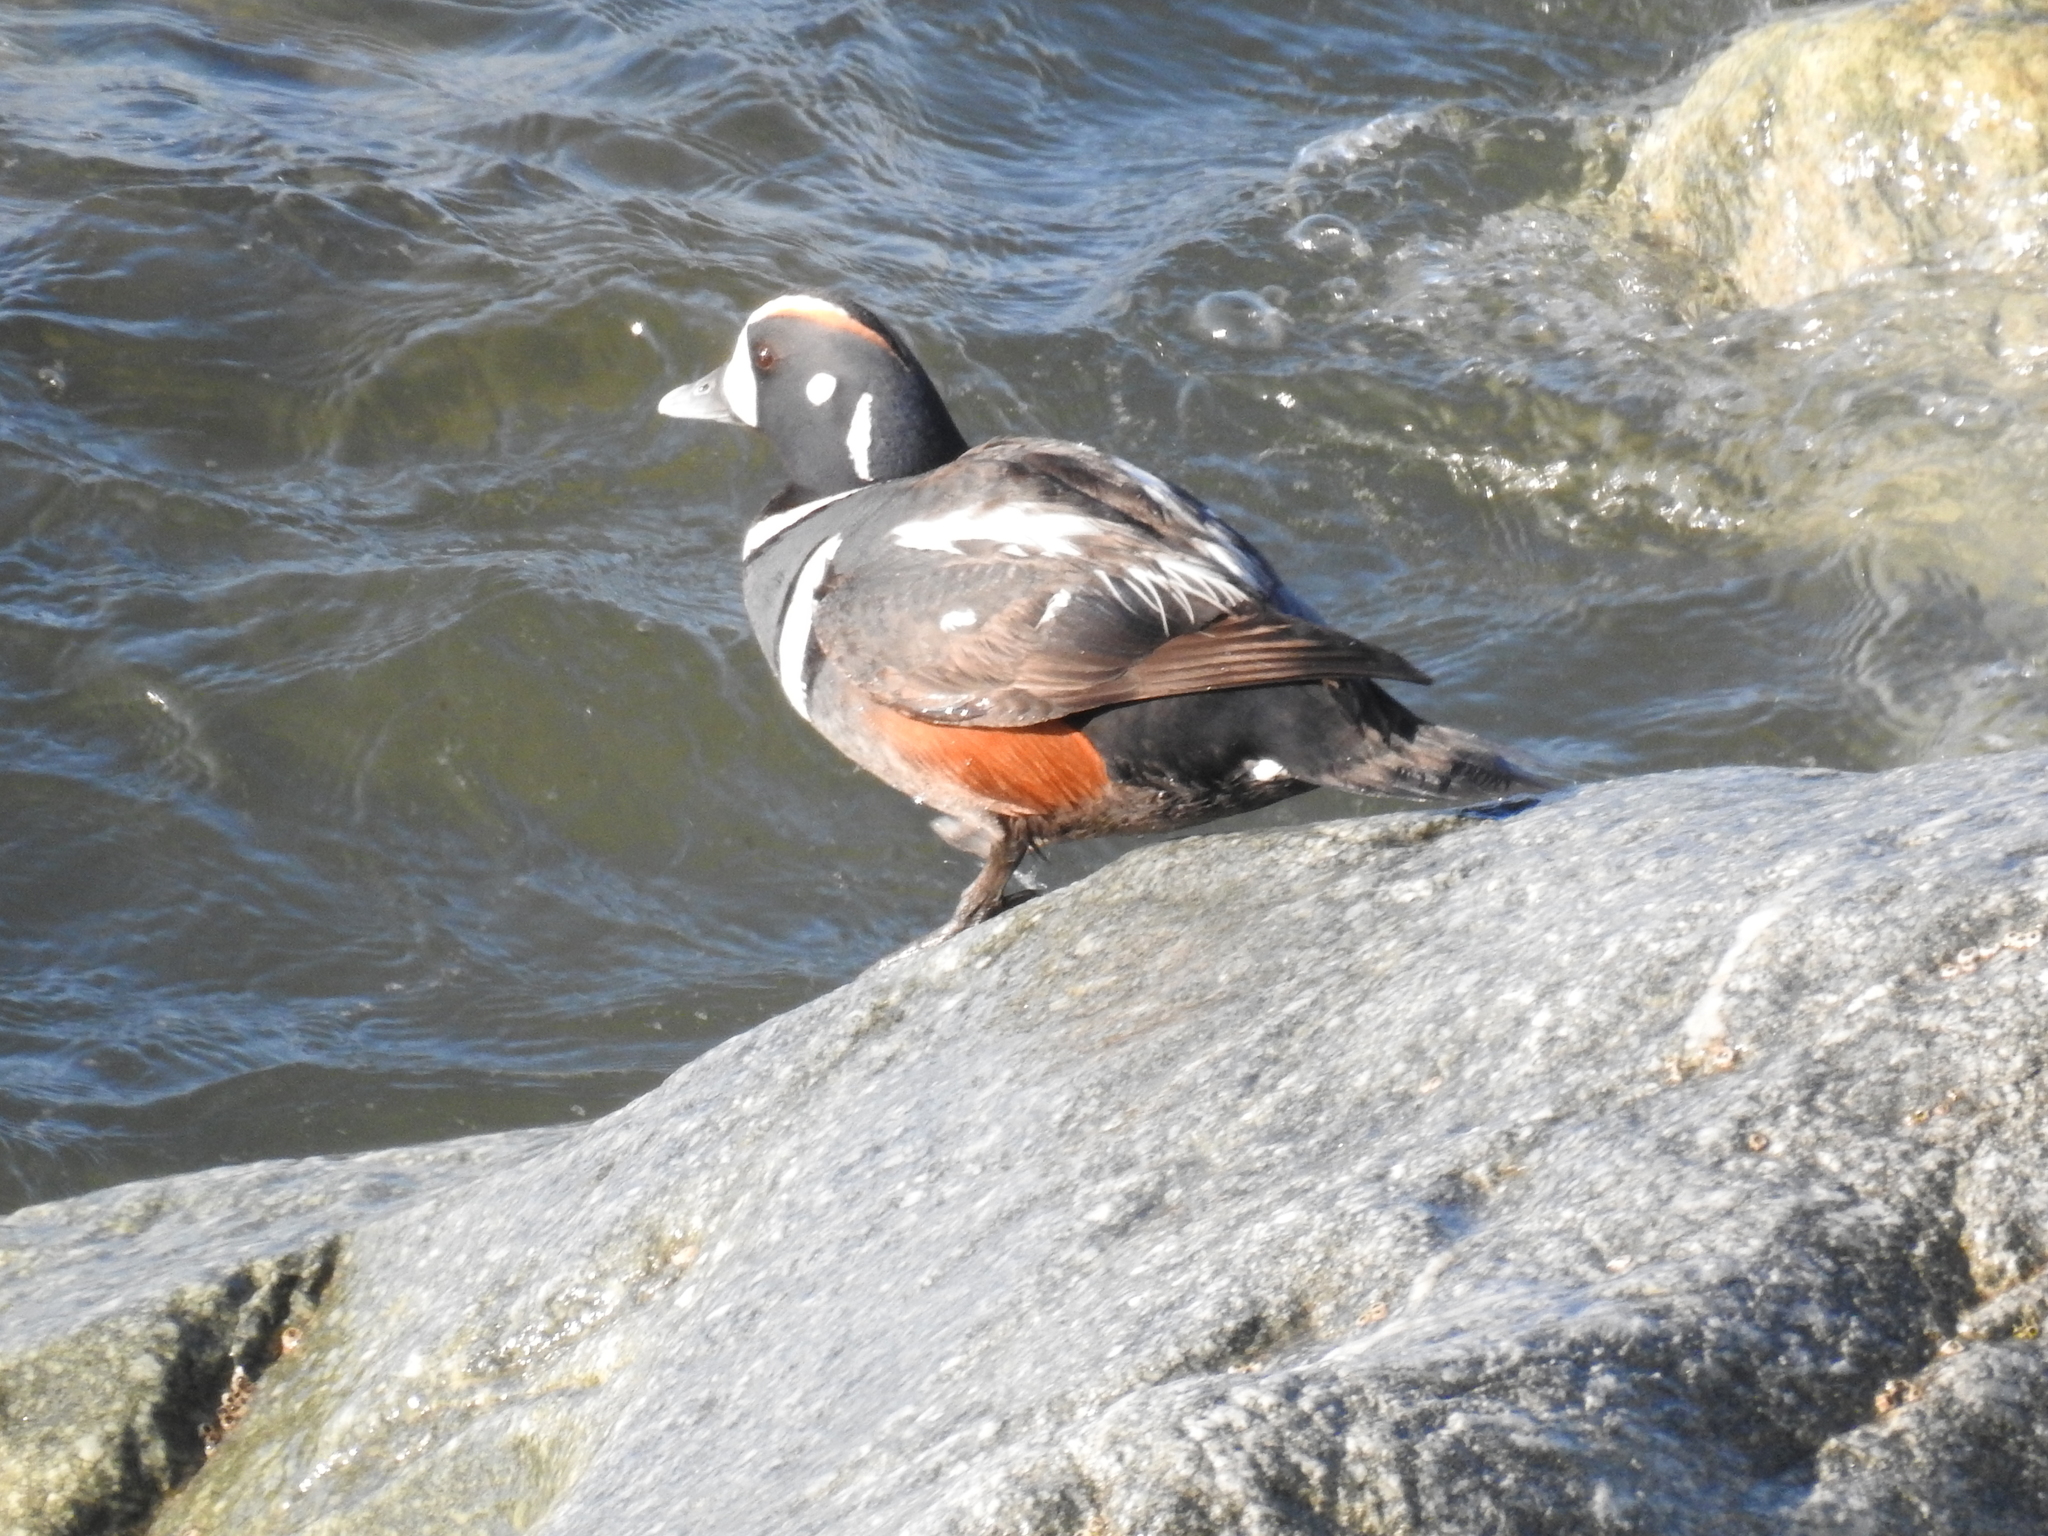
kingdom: Animalia
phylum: Chordata
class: Aves
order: Anseriformes
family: Anatidae
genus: Histrionicus
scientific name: Histrionicus histrionicus
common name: Harlequin duck
